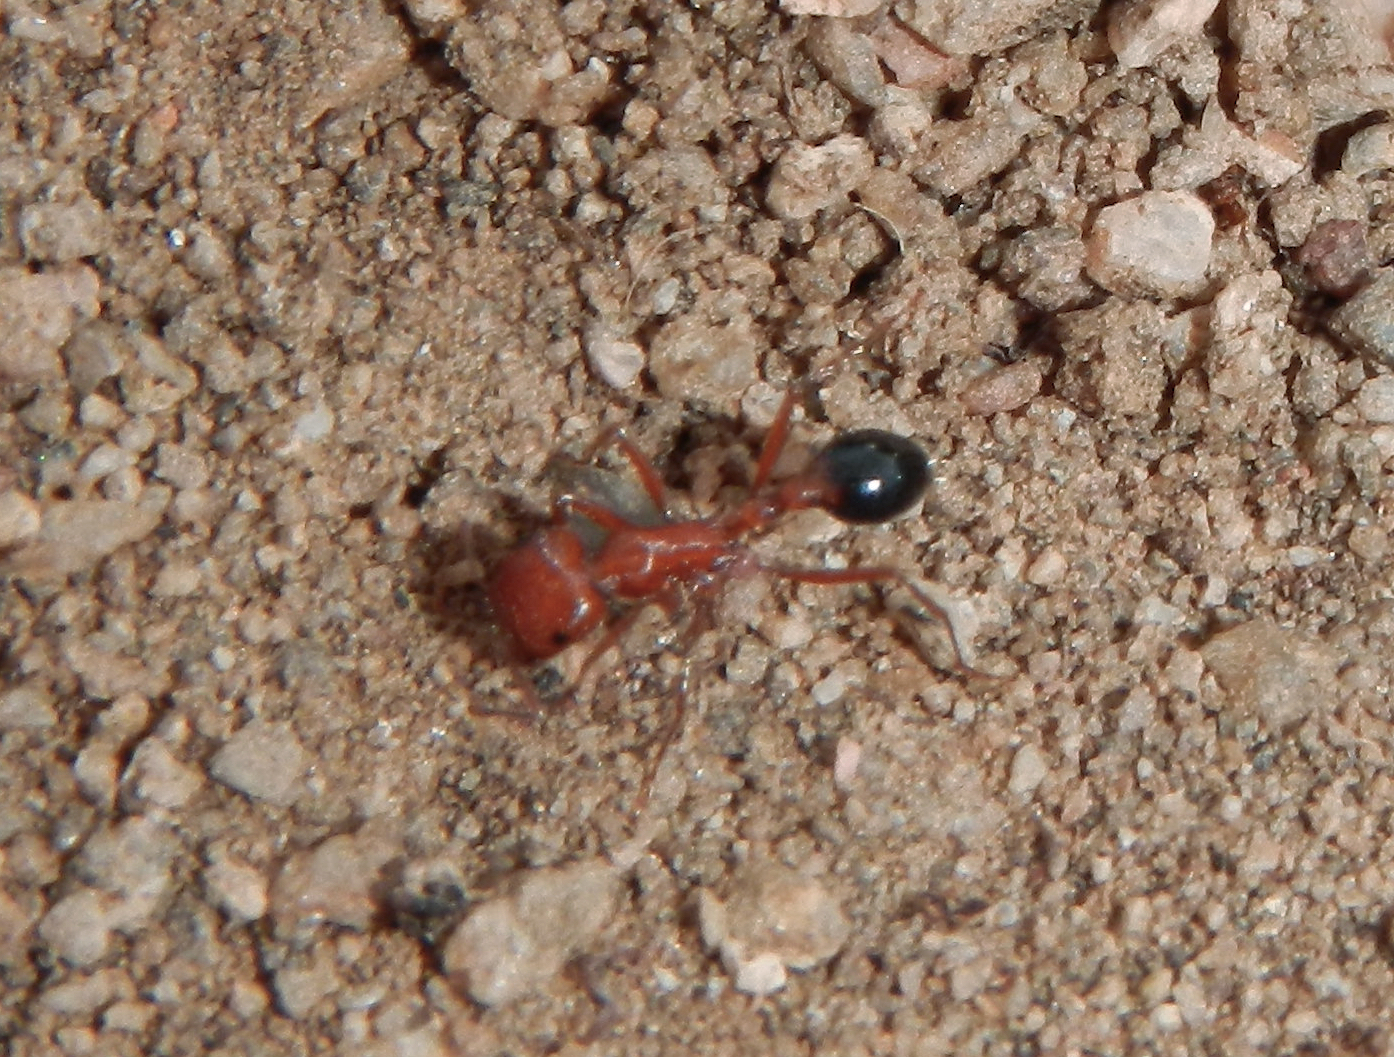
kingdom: Animalia
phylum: Arthropoda
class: Insecta
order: Hymenoptera
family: Formicidae
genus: Pogonomyrmex
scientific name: Pogonomyrmex californicus
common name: California harvester ant
